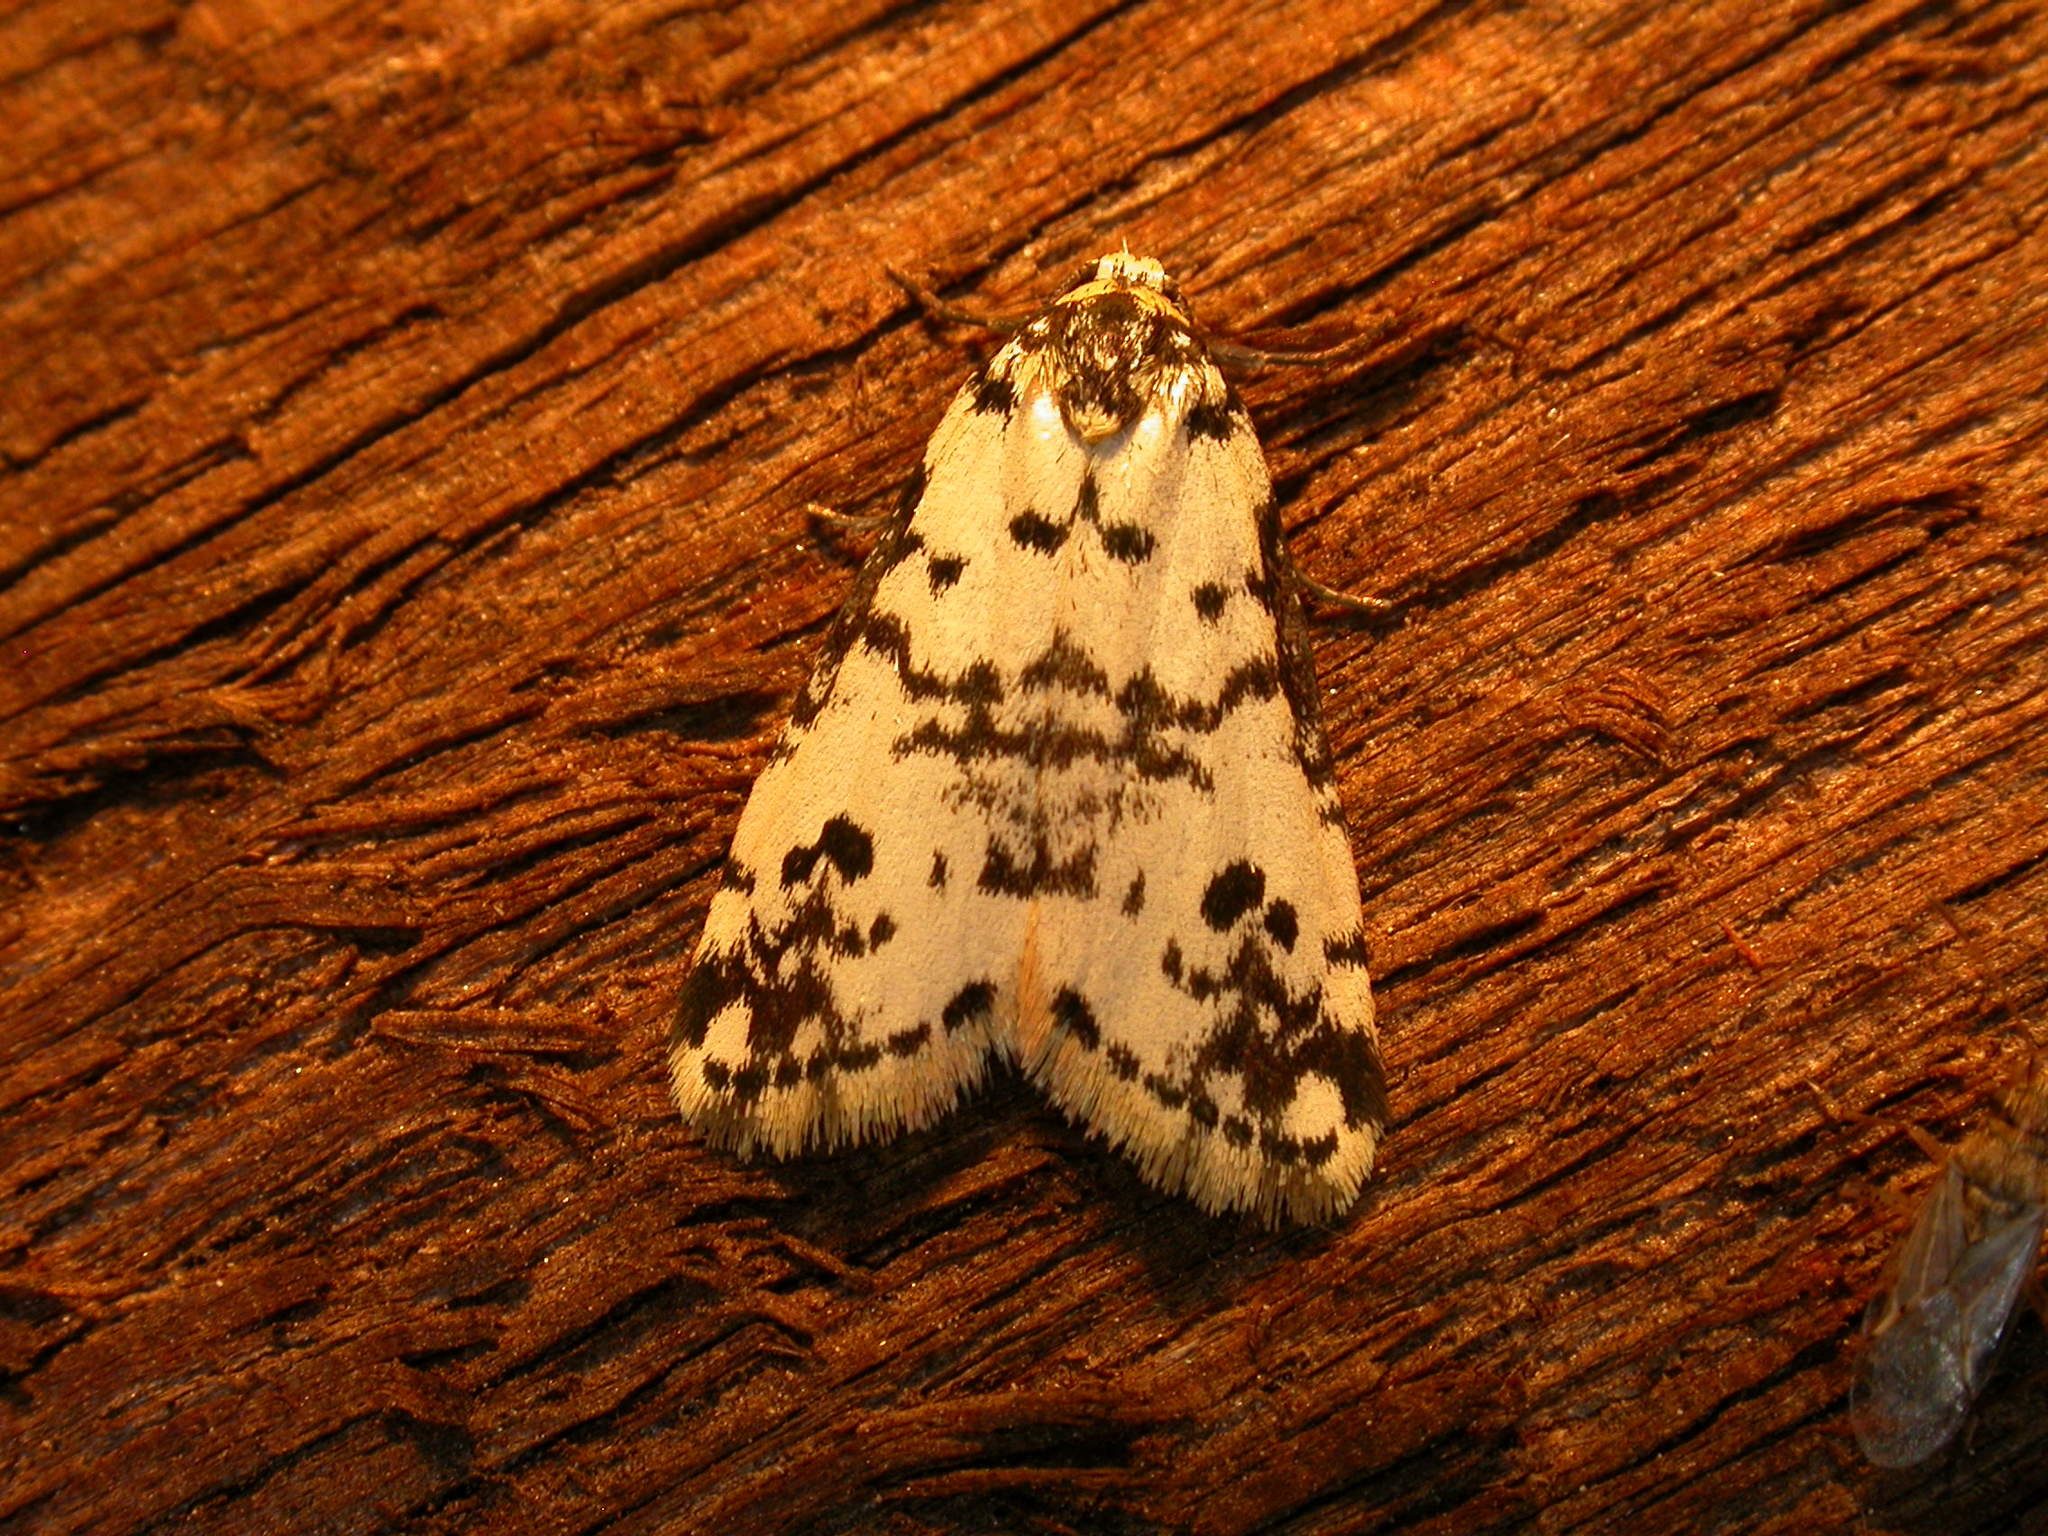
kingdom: Animalia
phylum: Arthropoda
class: Insecta
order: Lepidoptera
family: Erebidae
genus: Thallarcha
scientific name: Thallarcha eremicola
